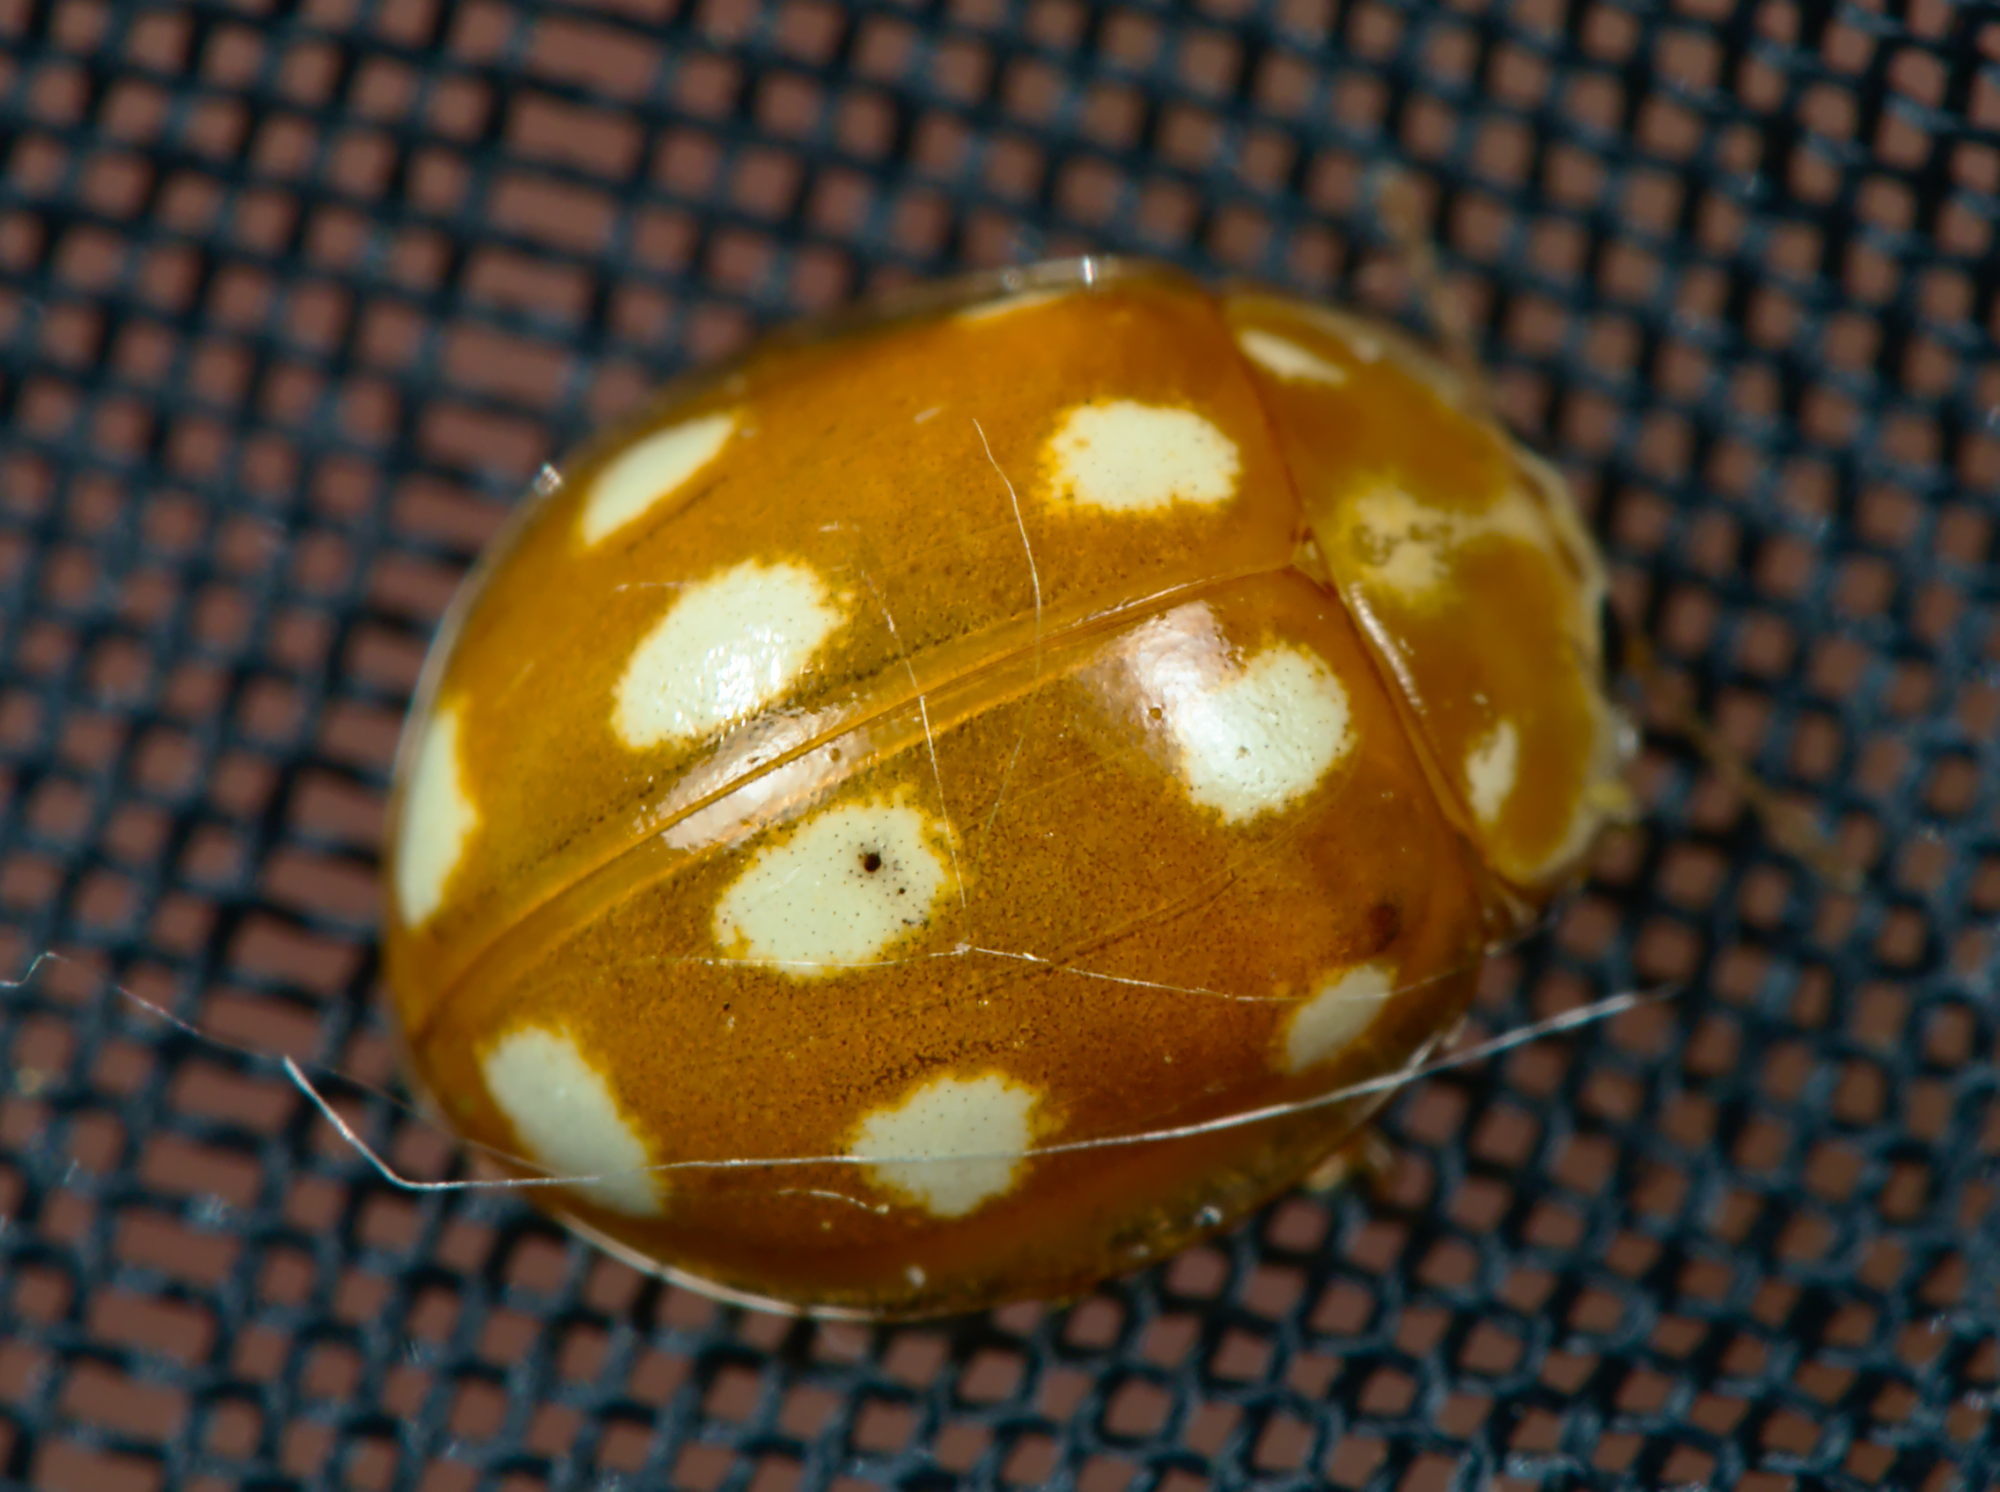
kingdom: Animalia
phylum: Arthropoda
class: Insecta
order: Coleoptera
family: Coccinellidae
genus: Calvia
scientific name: Calvia decemguttata
